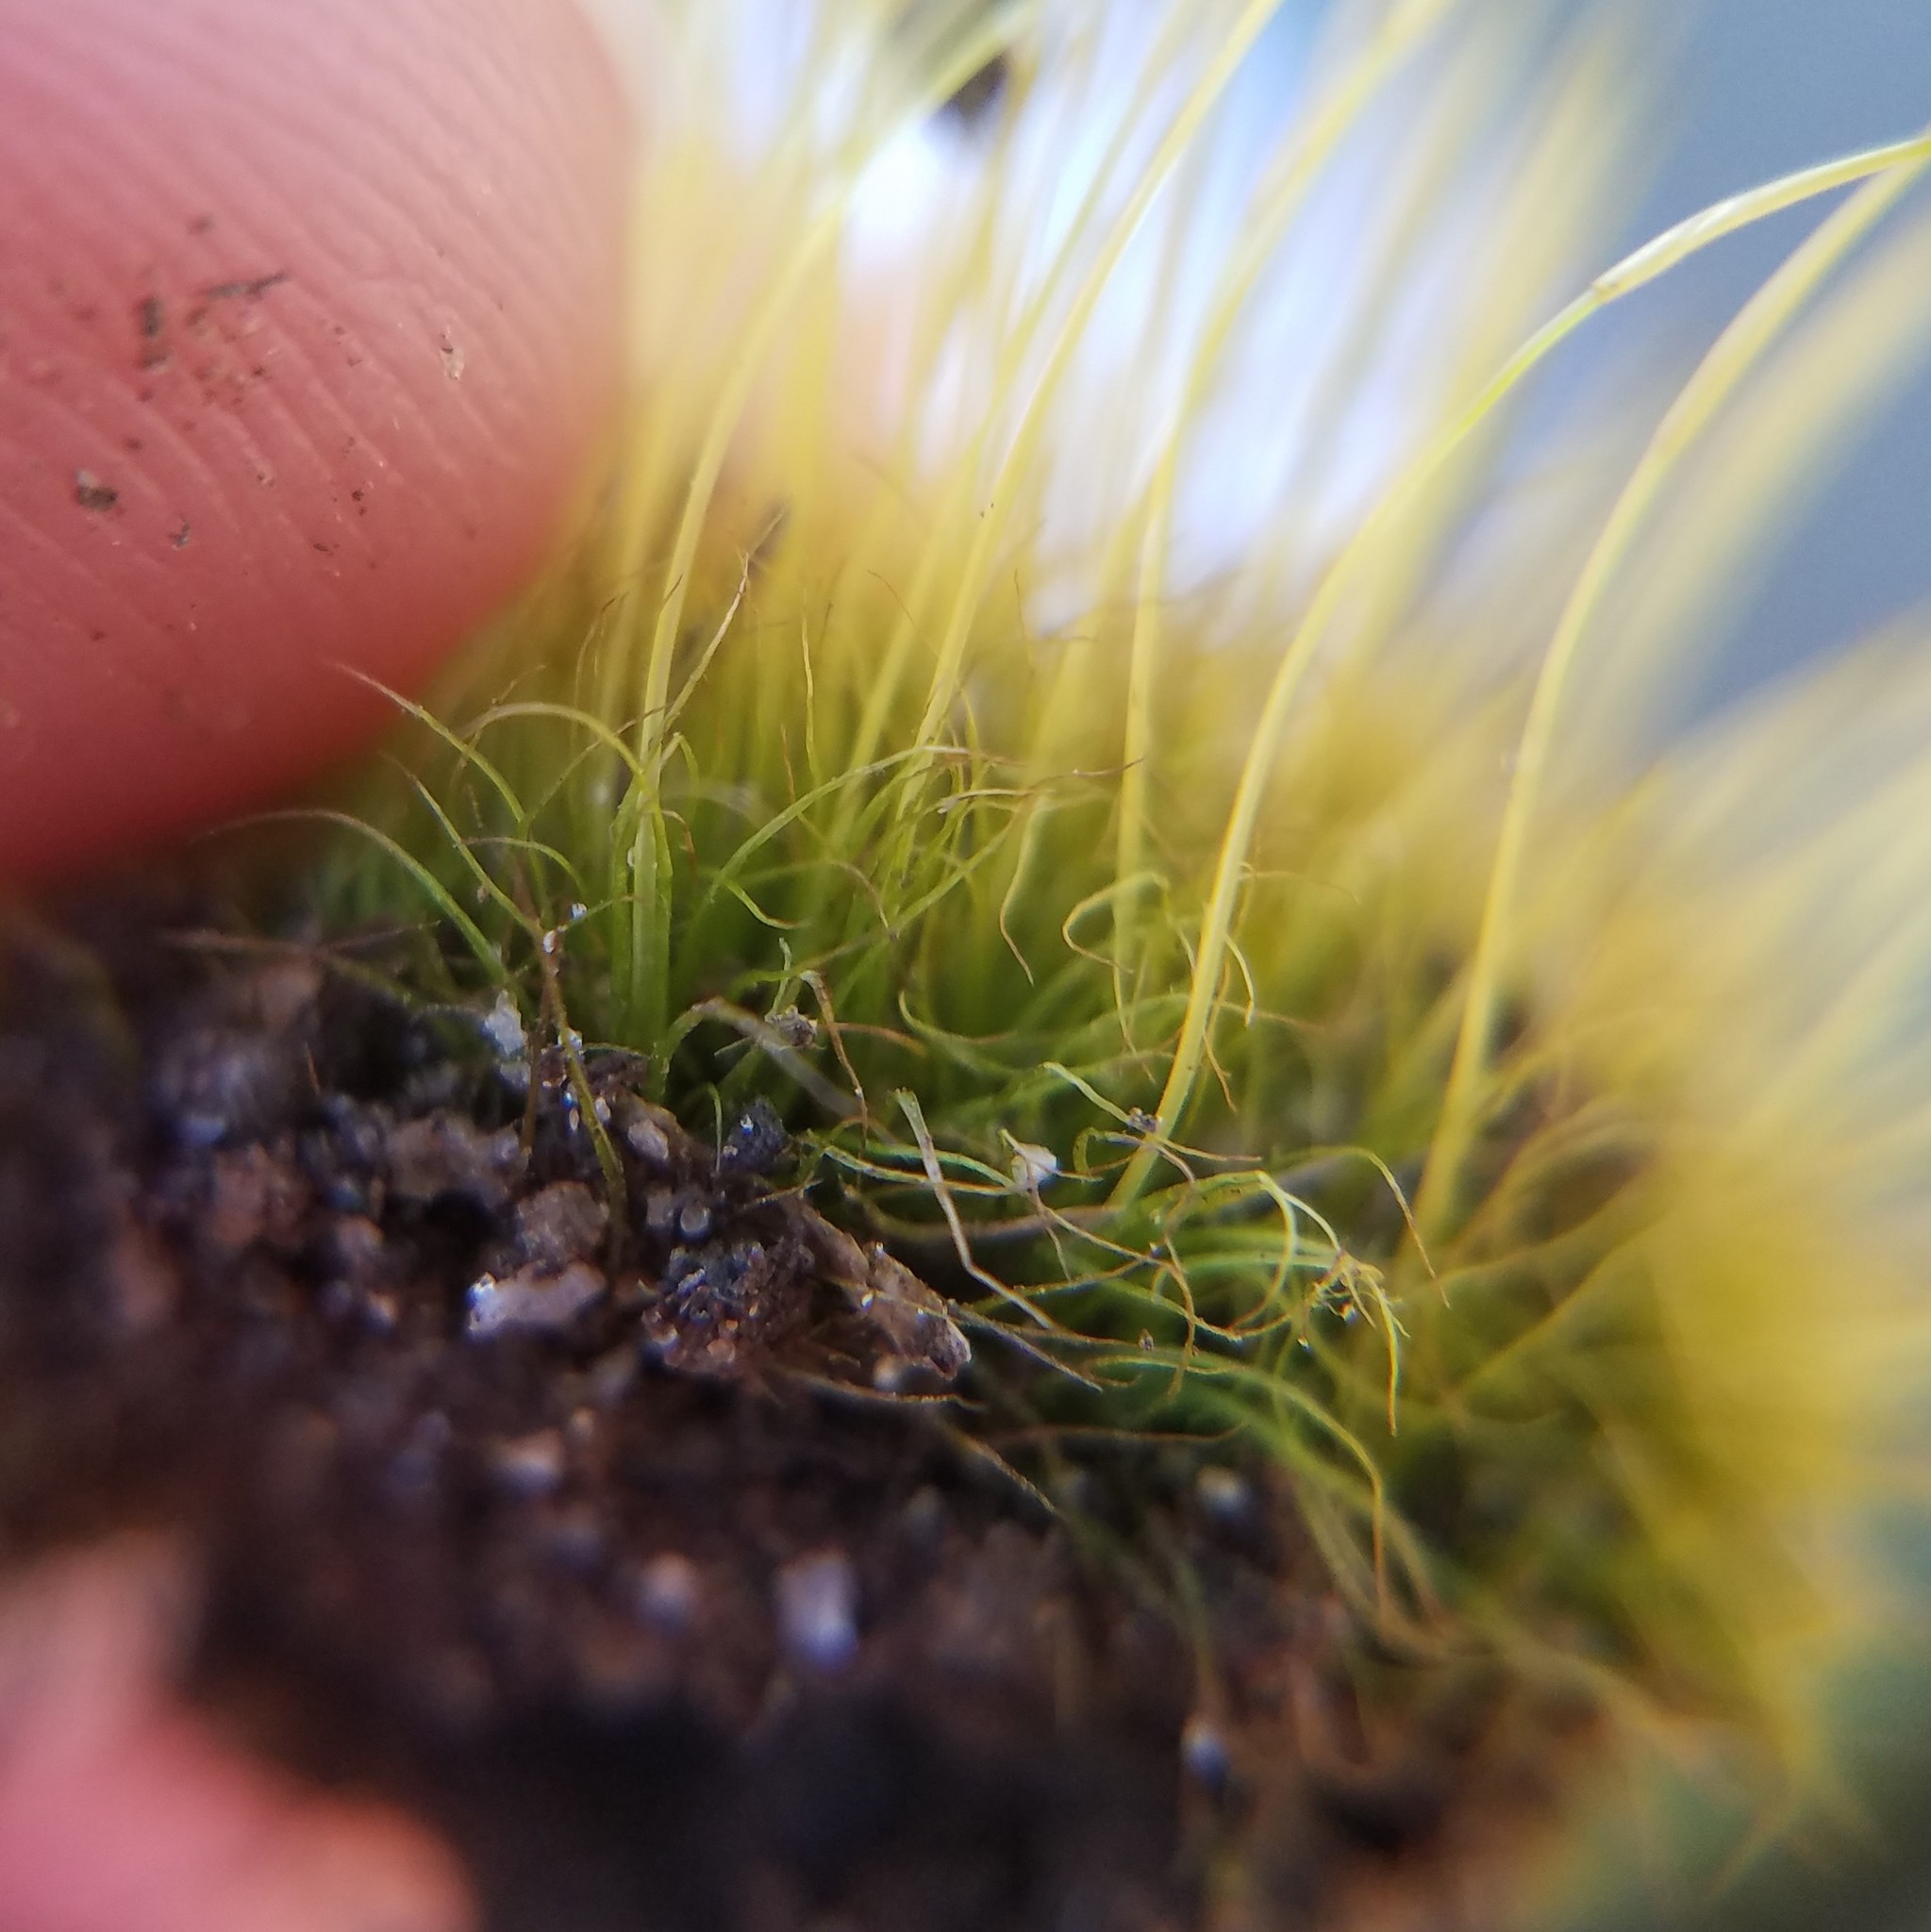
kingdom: Plantae
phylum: Bryophyta
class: Bryopsida
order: Dicranales
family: Ditrichaceae
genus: Ditrichum
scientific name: Ditrichum pallidum
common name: Pale cow-hair moss
